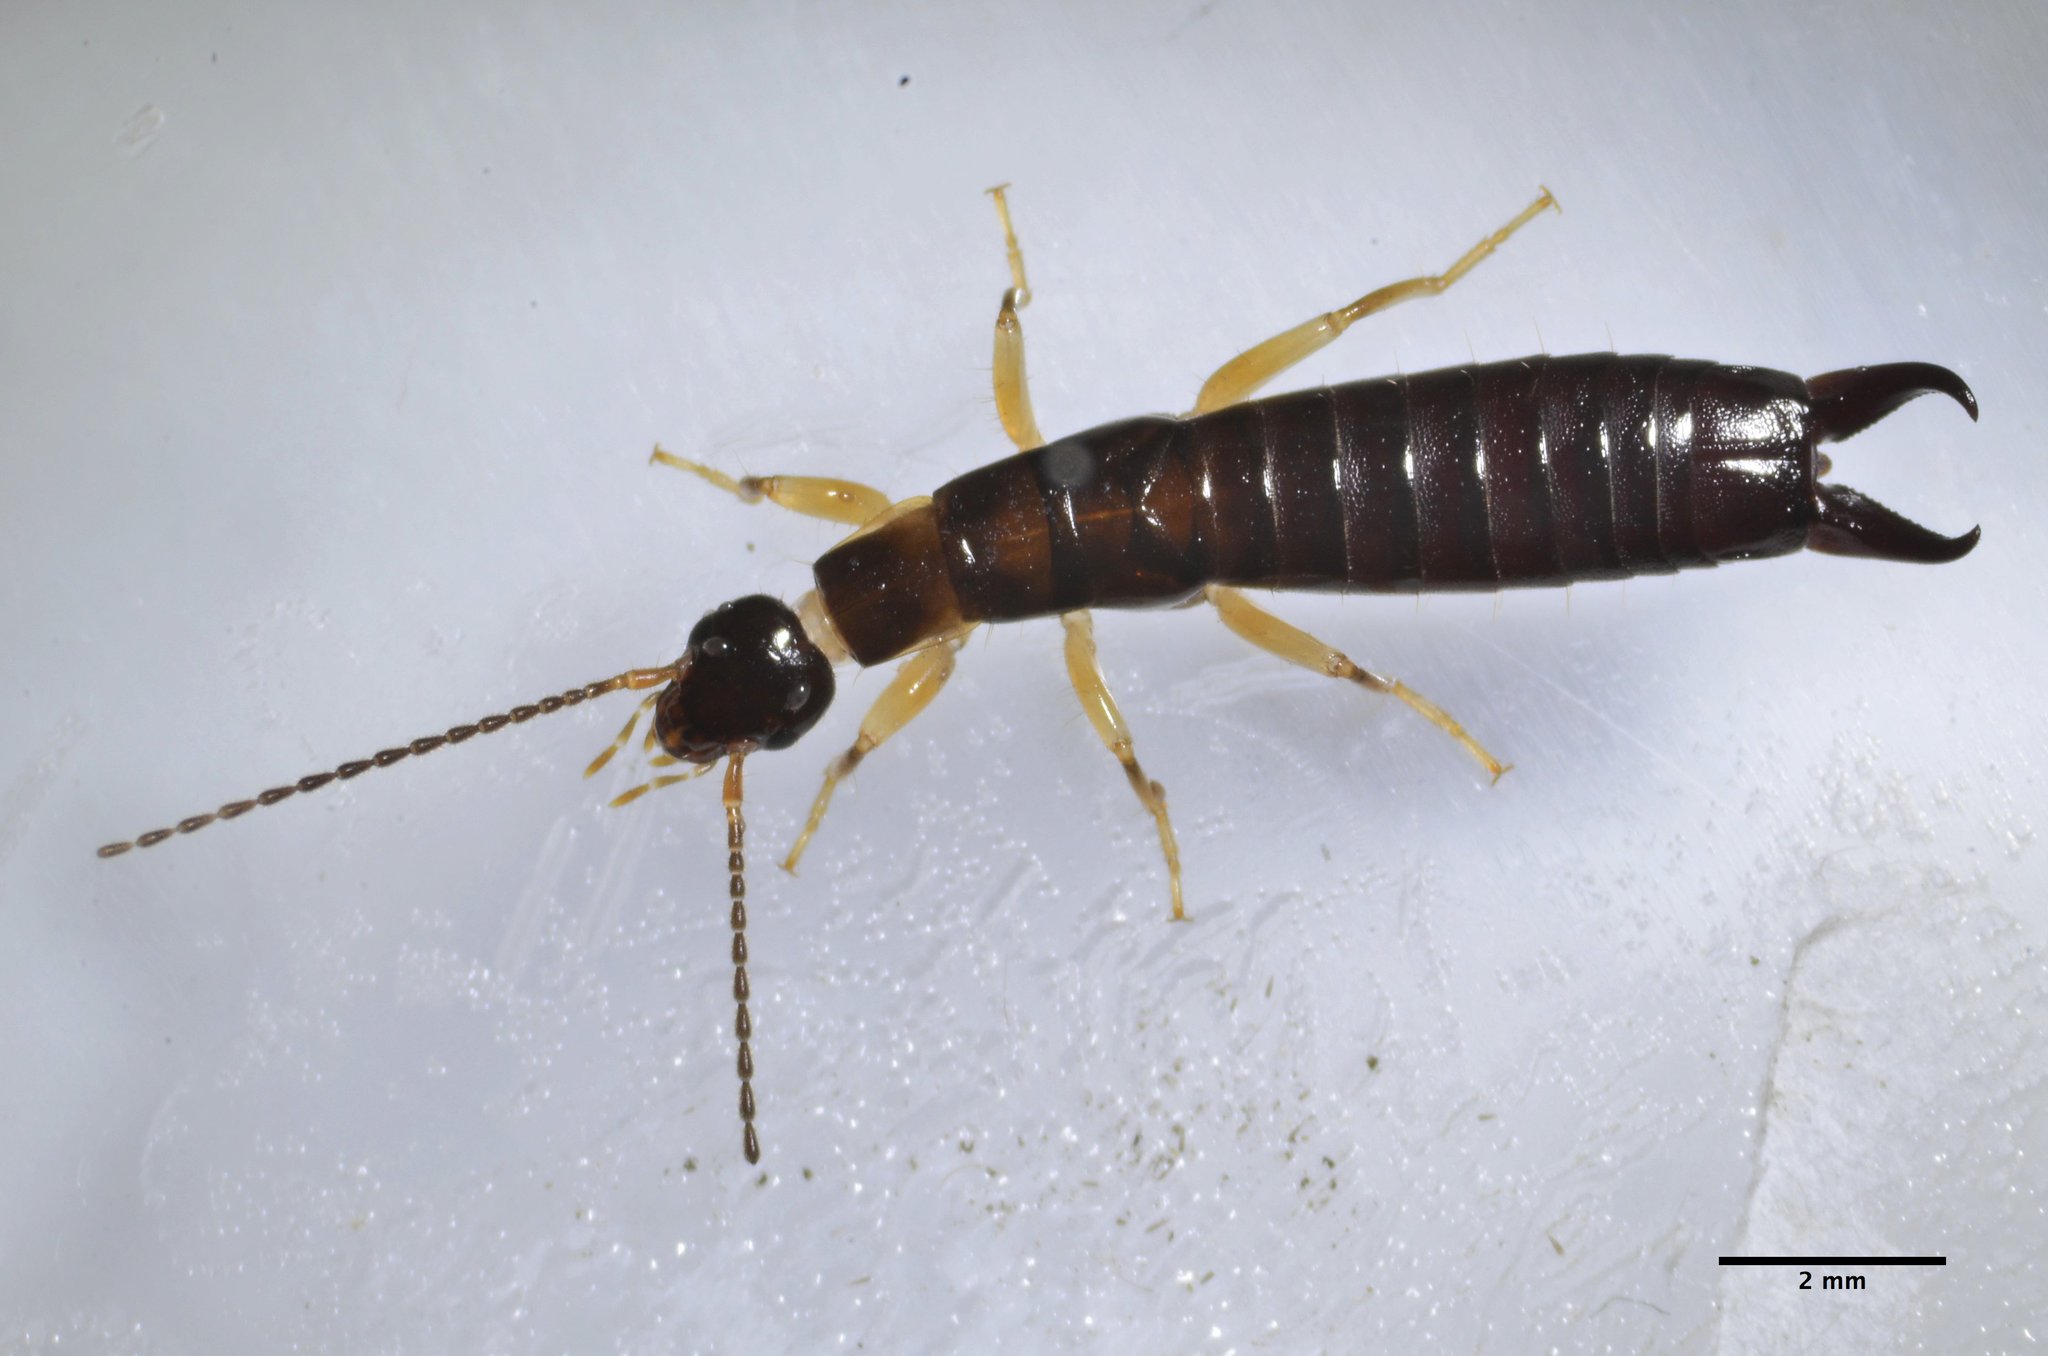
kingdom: Animalia
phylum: Arthropoda
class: Insecta
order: Dermaptera
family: Anisolabididae
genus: Euborellia
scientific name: Euborellia annulipes
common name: Ringlegged earwig
